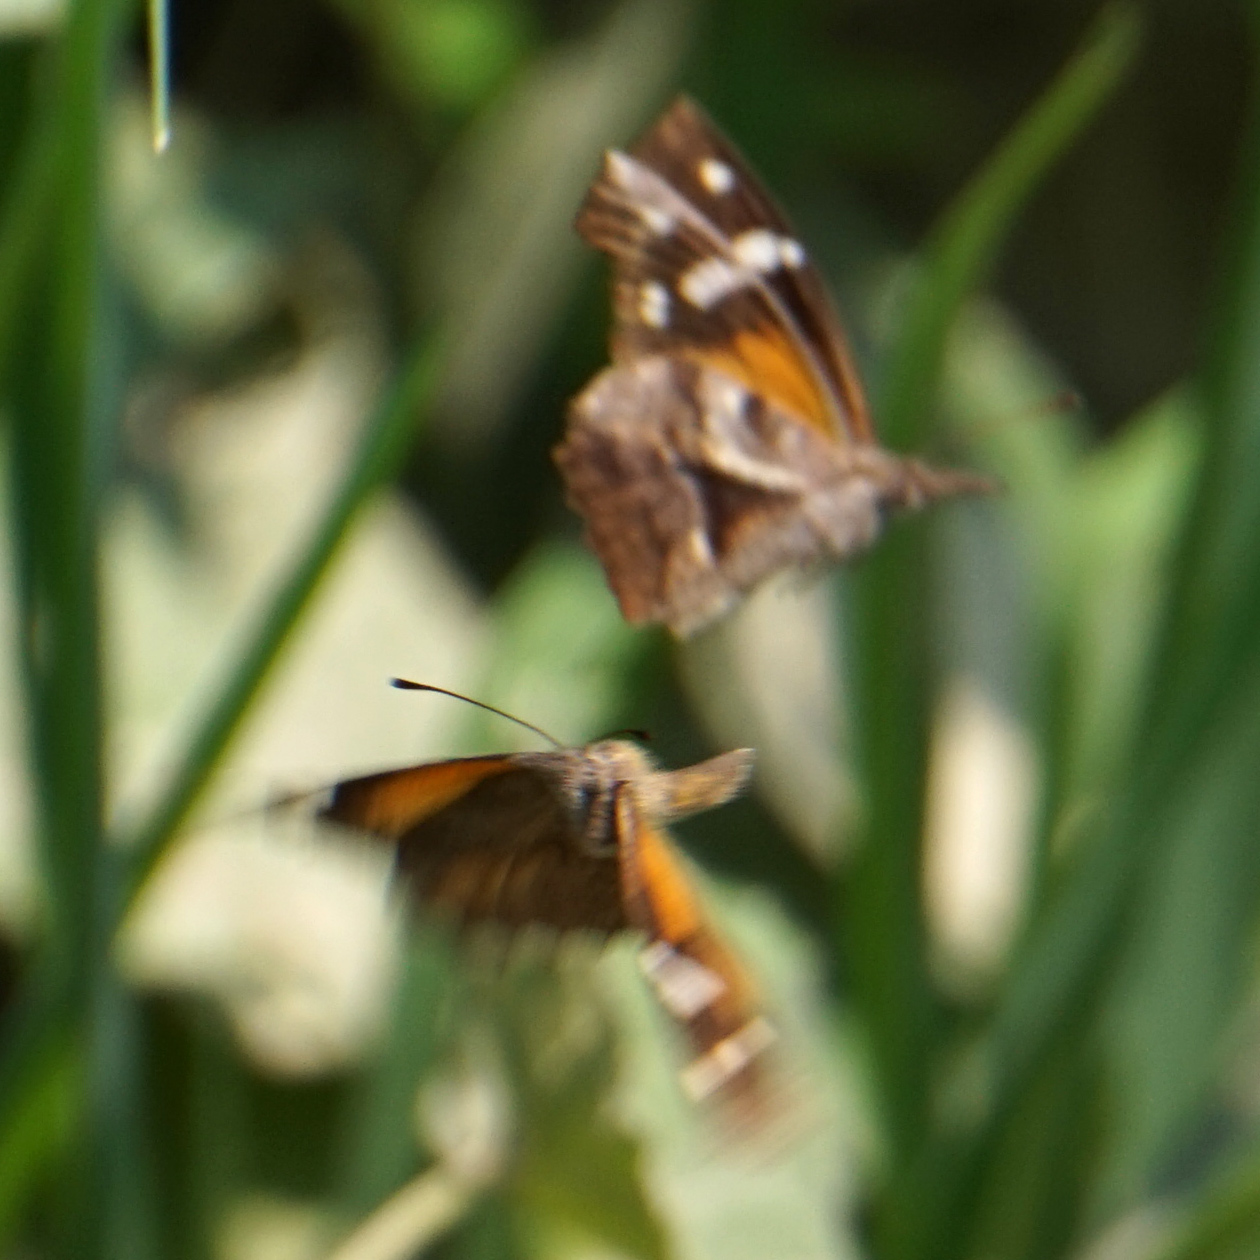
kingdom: Animalia
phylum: Arthropoda
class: Insecta
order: Lepidoptera
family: Nymphalidae
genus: Libytheana
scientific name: Libytheana carinenta
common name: American snout
